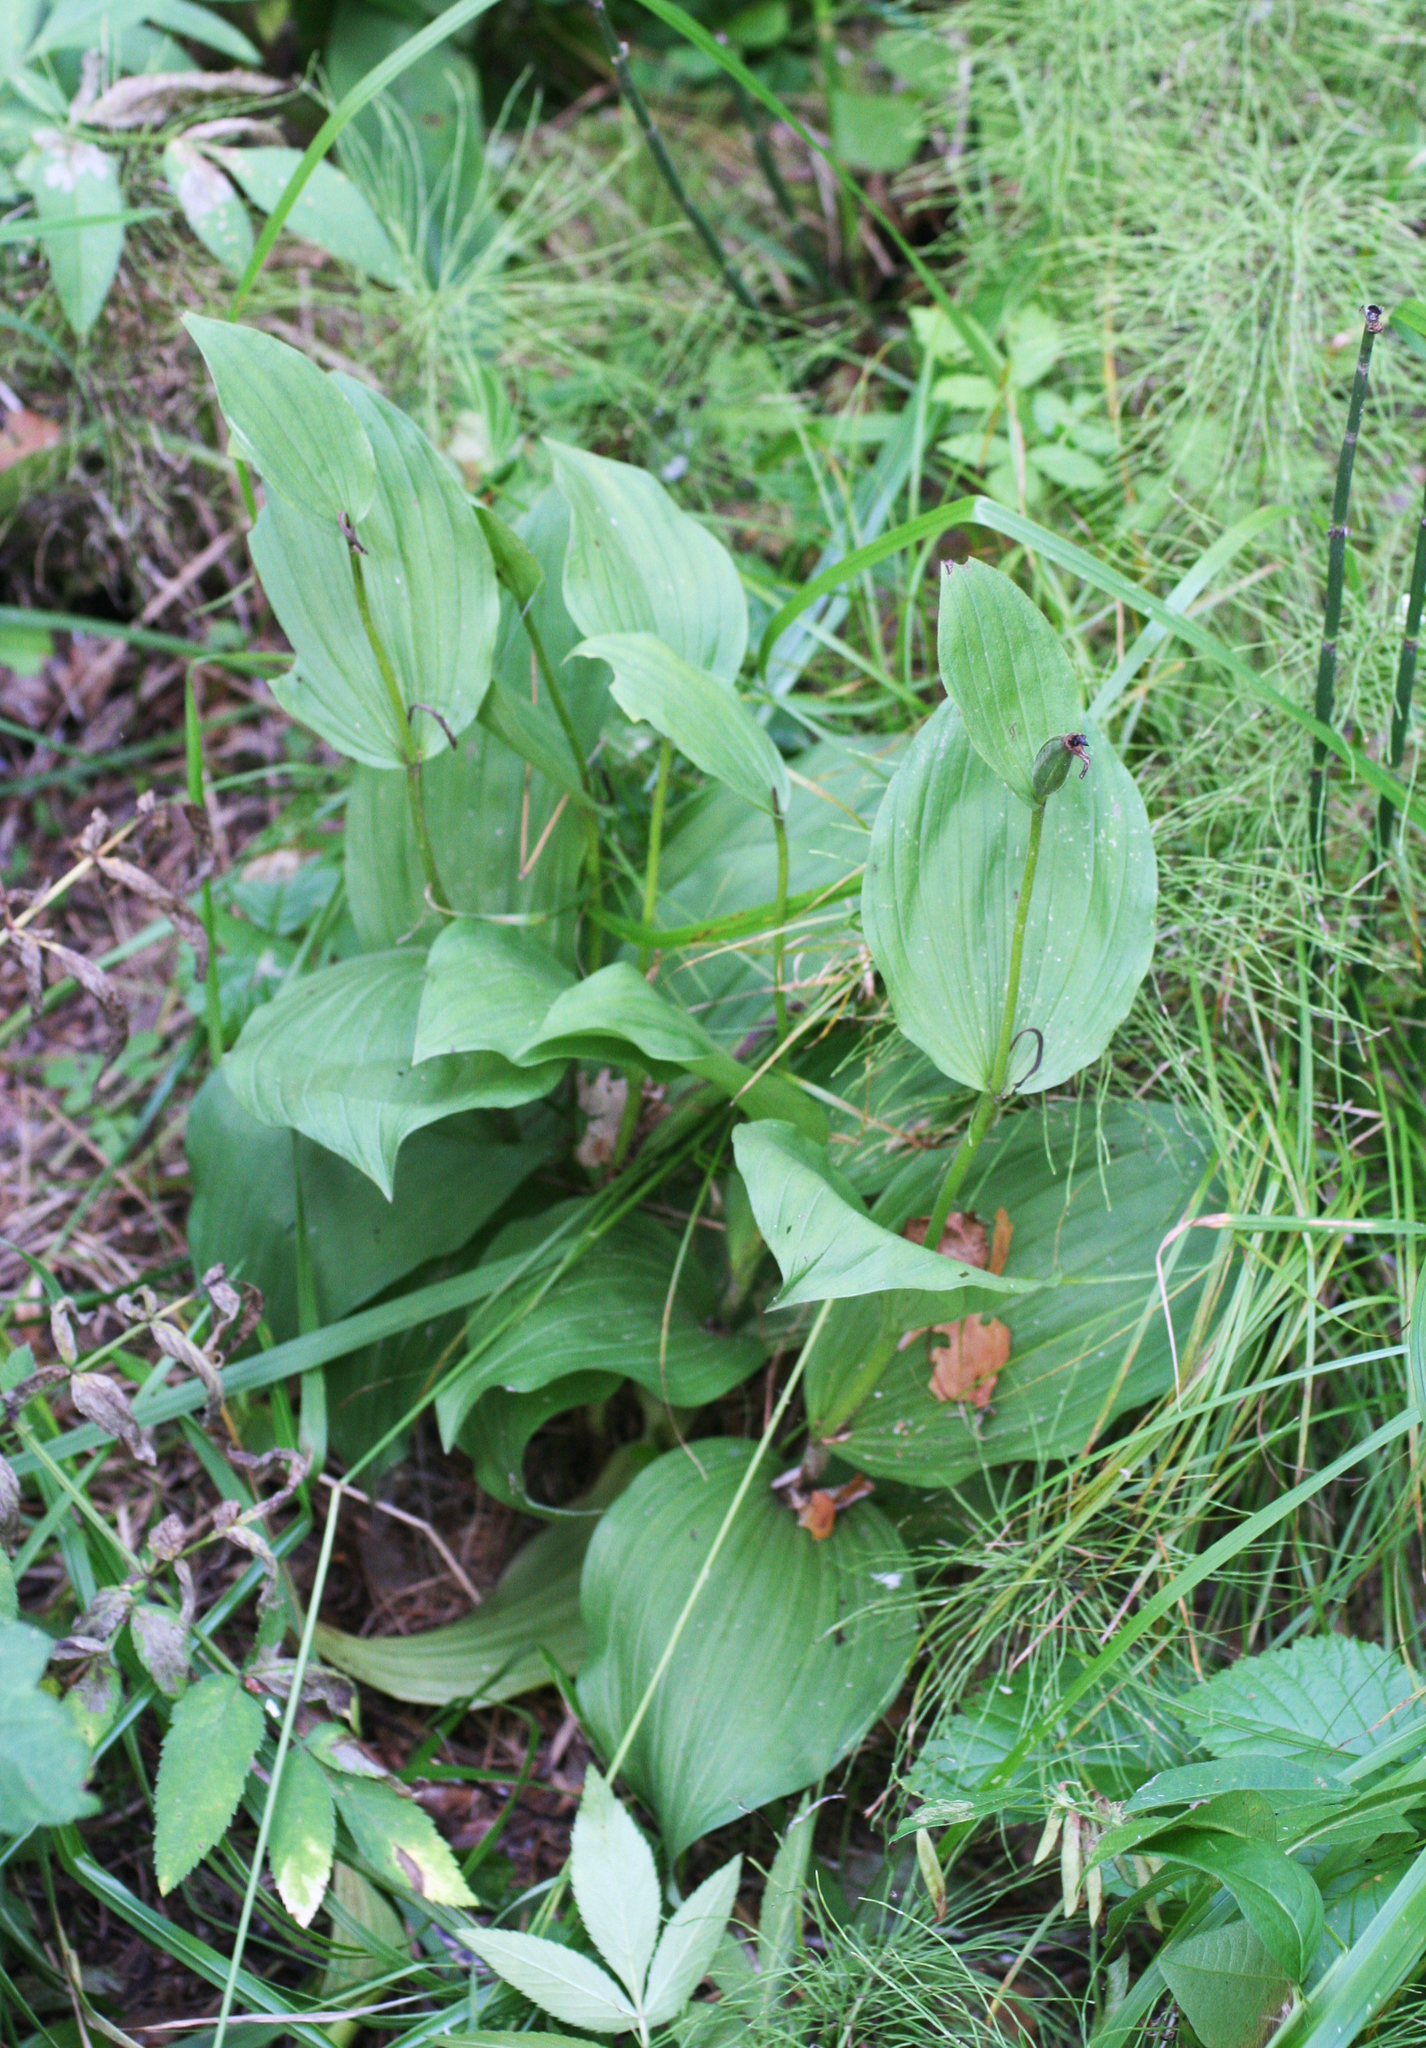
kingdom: Plantae
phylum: Tracheophyta
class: Liliopsida
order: Asparagales
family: Orchidaceae
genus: Cypripedium
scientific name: Cypripedium macranthos
